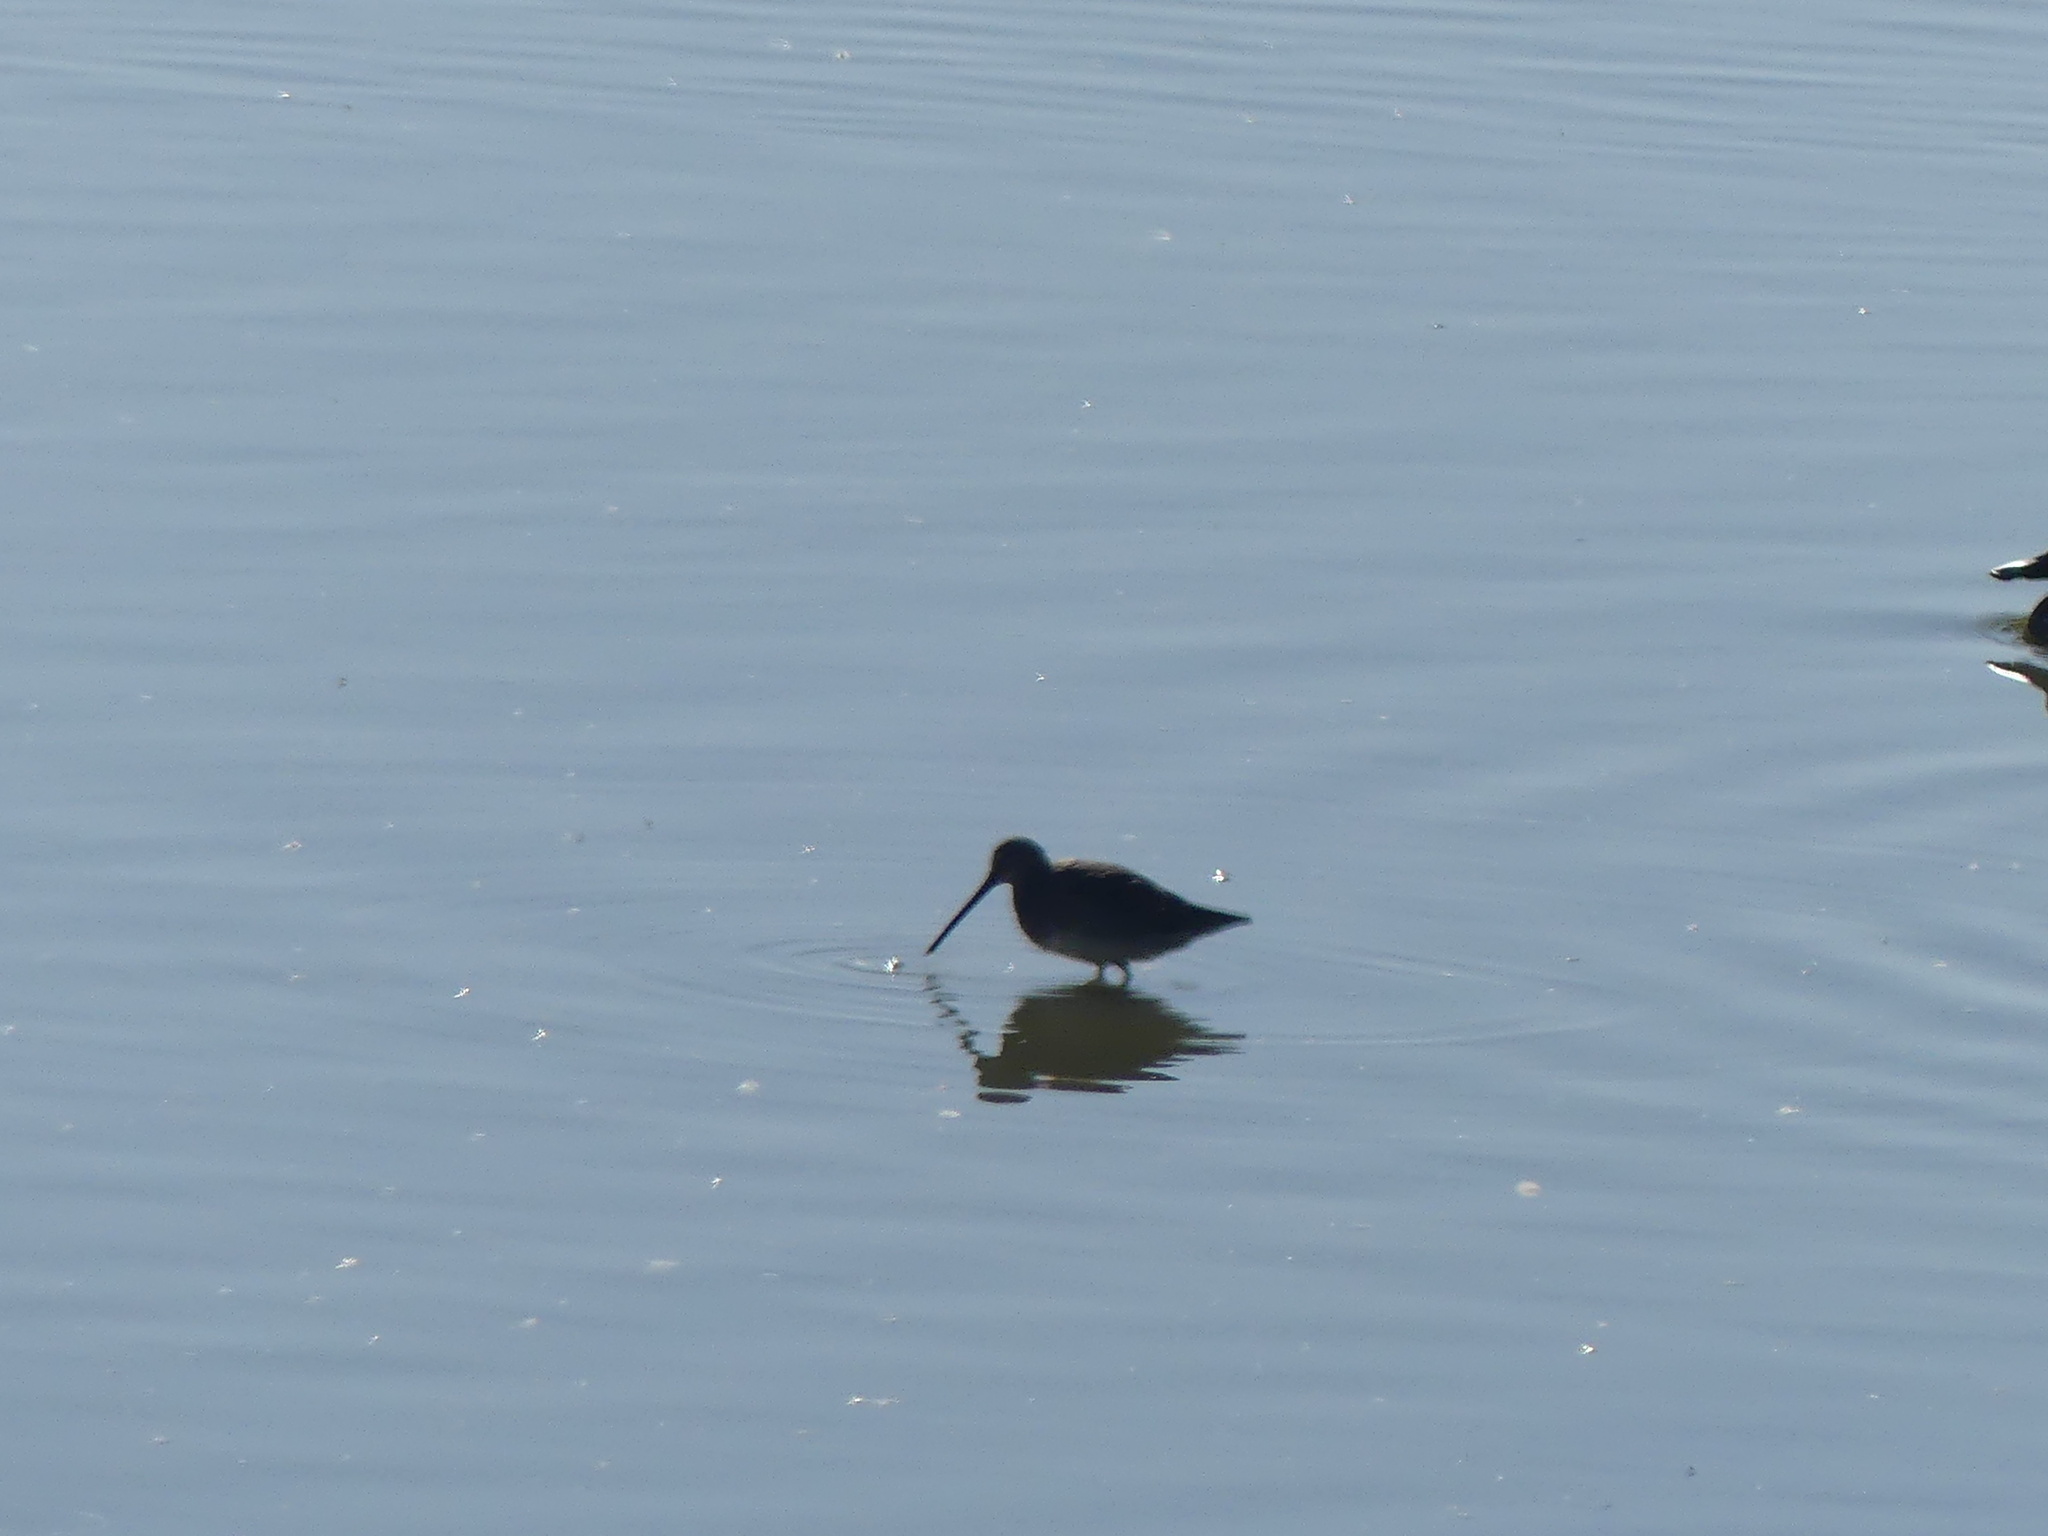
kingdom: Animalia
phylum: Chordata
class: Aves
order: Charadriiformes
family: Scolopacidae
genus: Limnodromus
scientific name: Limnodromus scolopaceus
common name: Long-billed dowitcher
